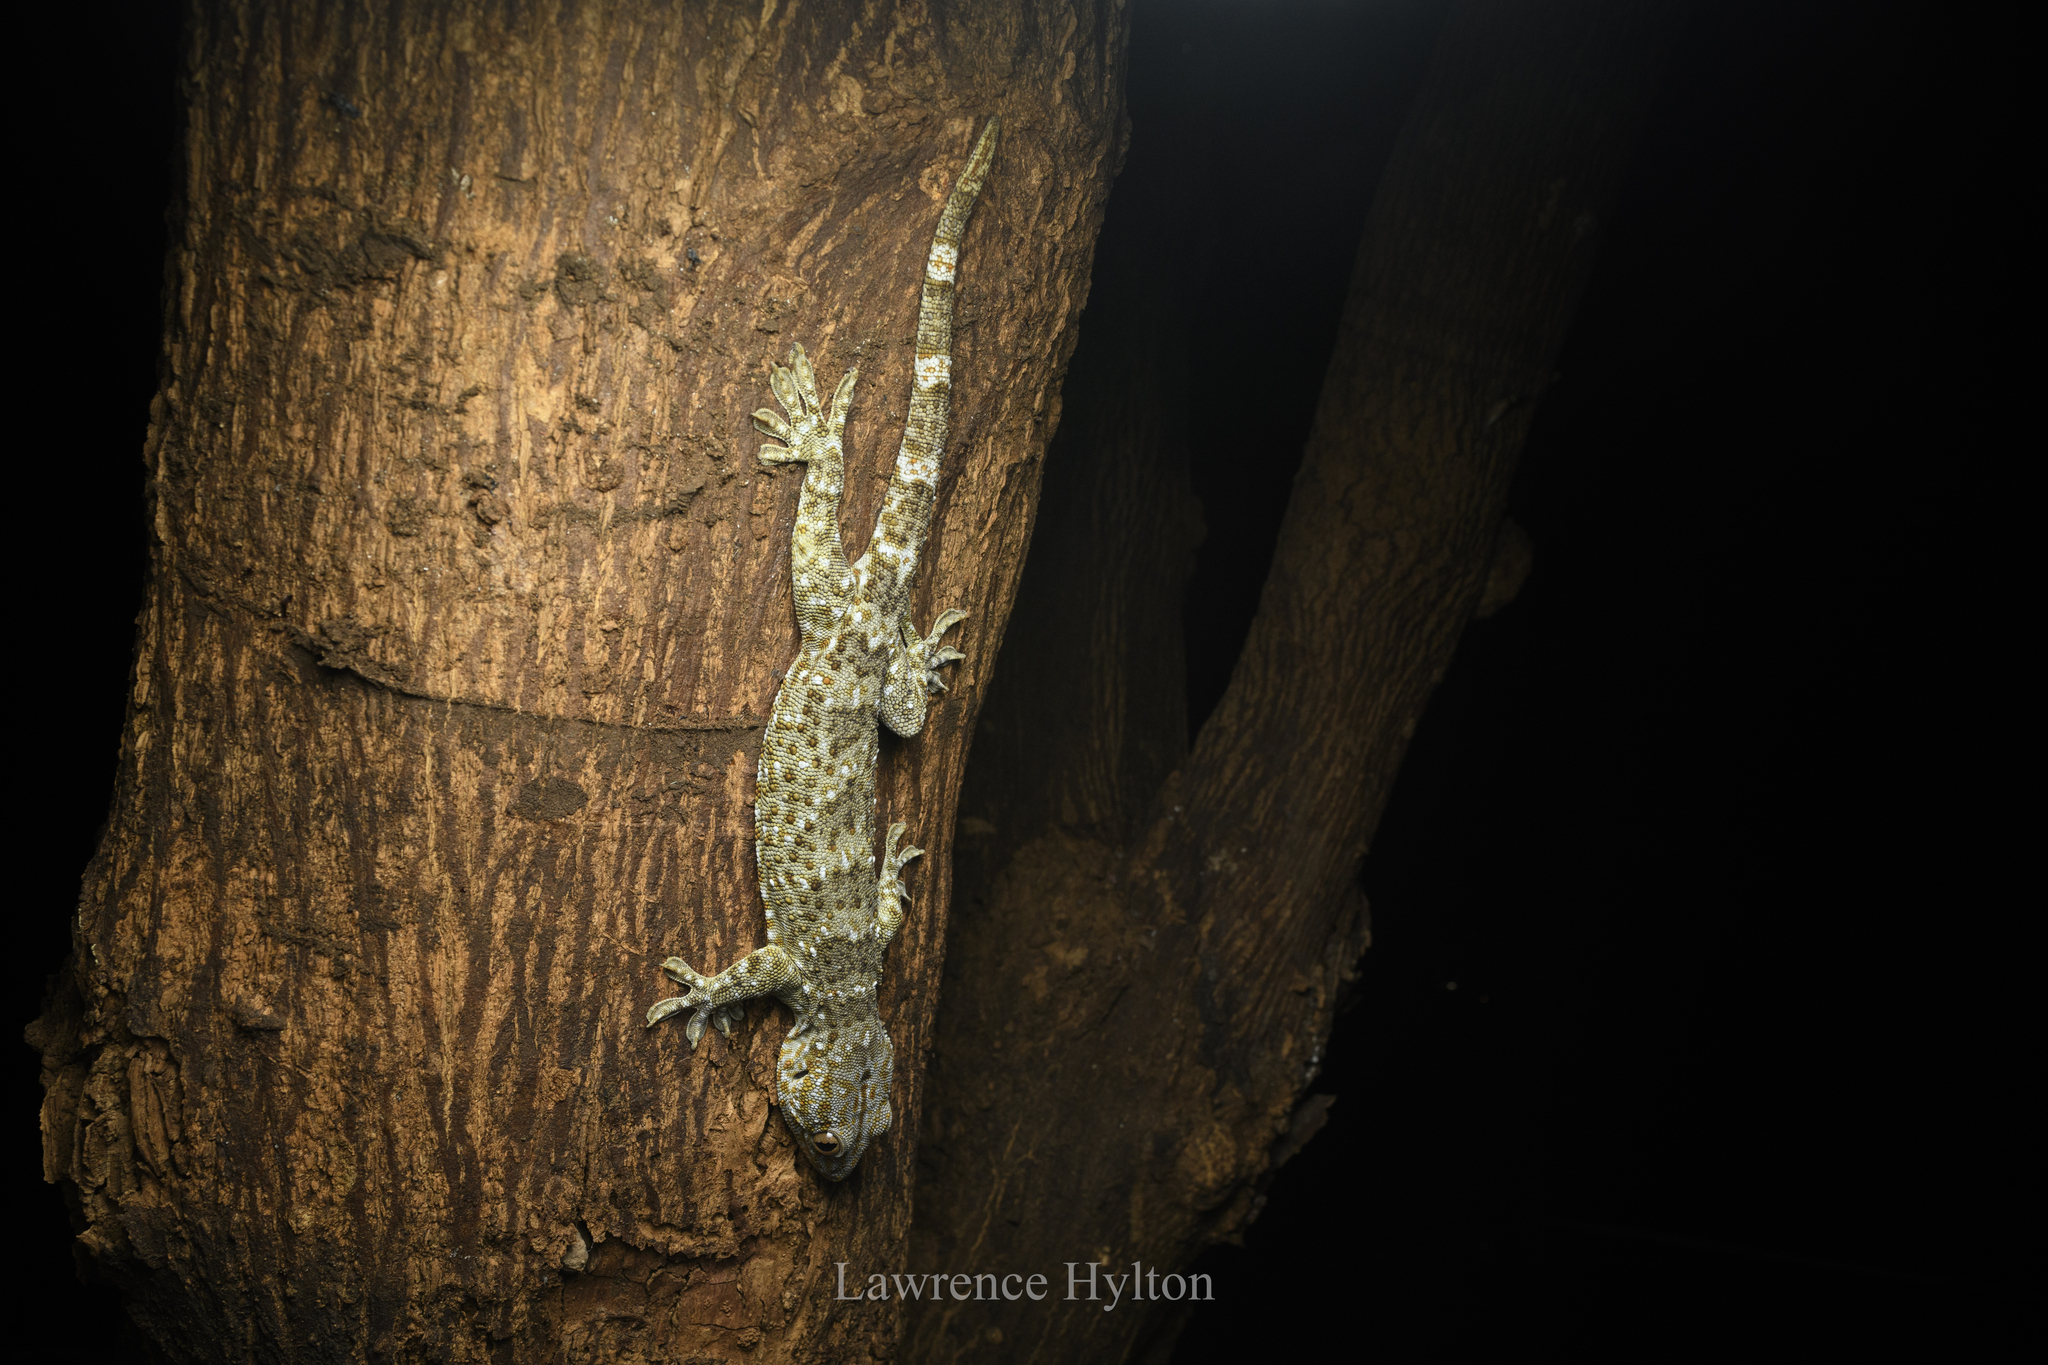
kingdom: Animalia
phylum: Chordata
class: Squamata
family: Gekkonidae
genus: Gekko
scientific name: Gekko reevesii
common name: Reeves’ tokay gecko
